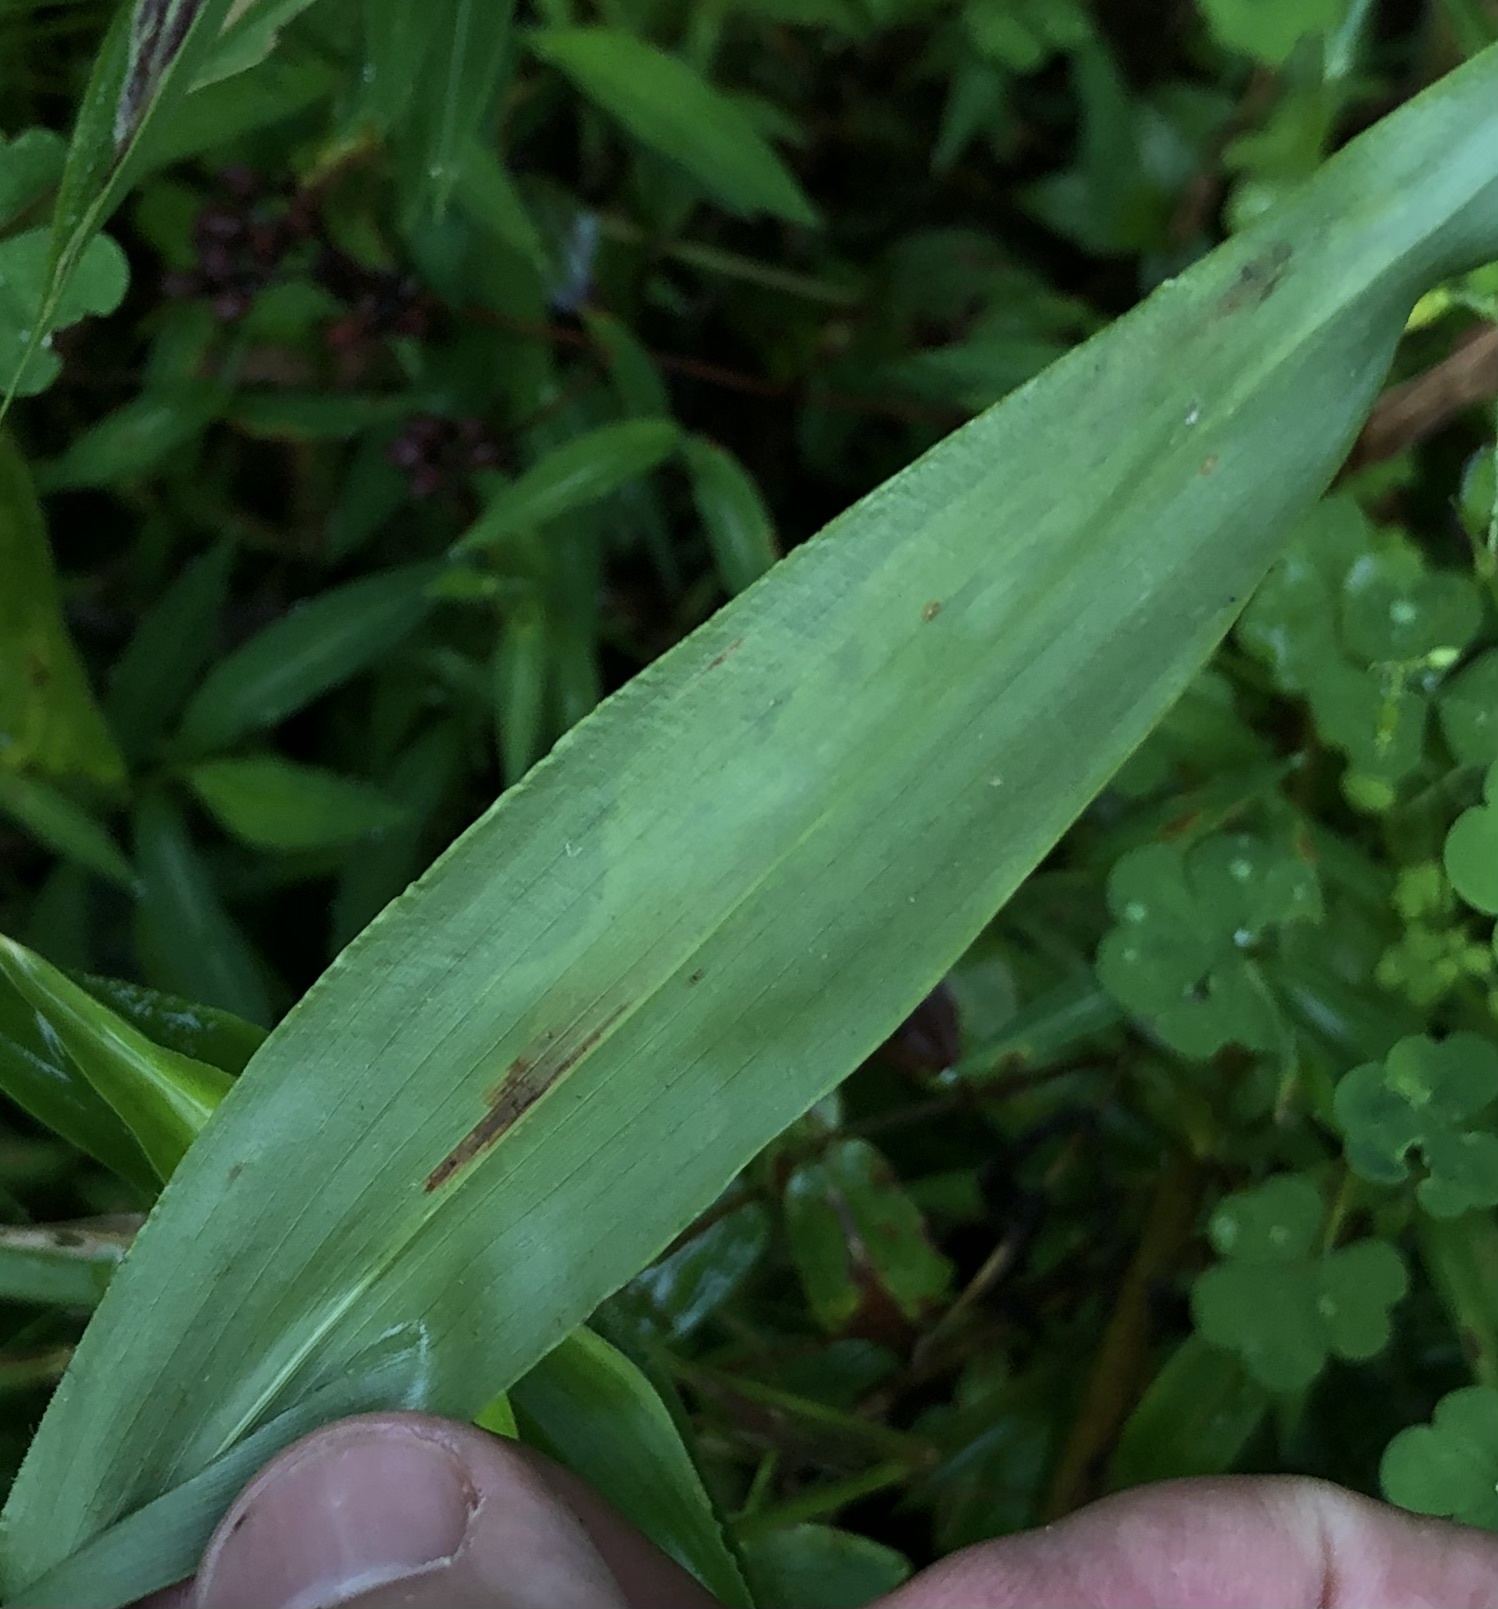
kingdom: Animalia
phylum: Arthropoda
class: Insecta
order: Diptera
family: Agromyzidae
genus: Cerodontha
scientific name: Cerodontha angulata
